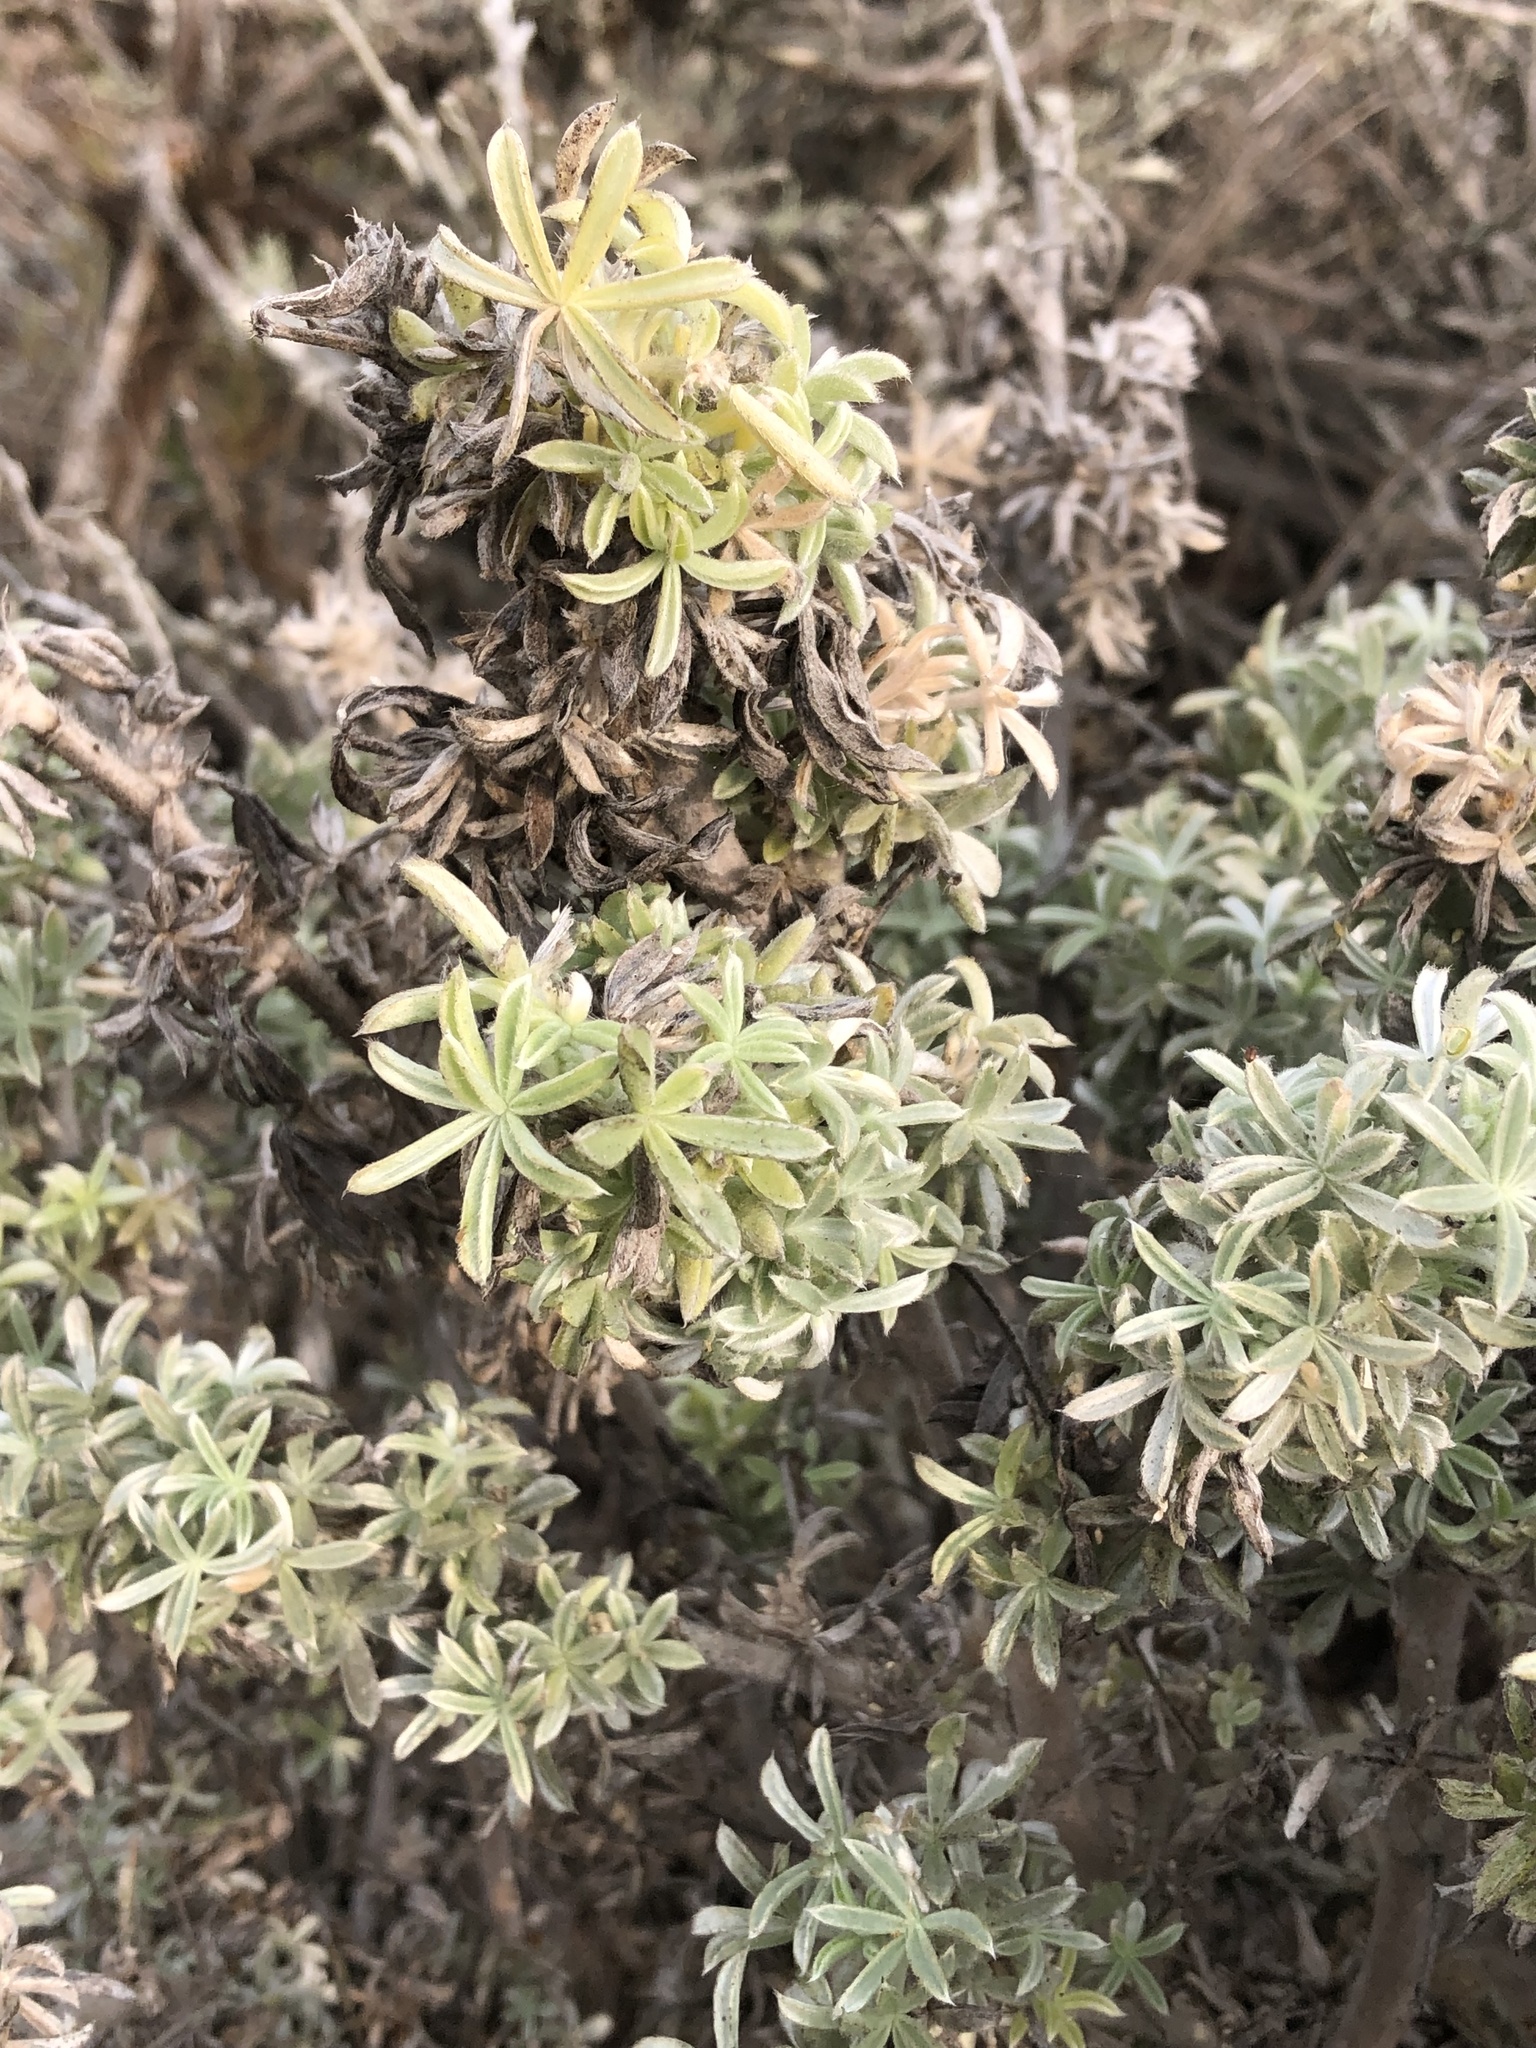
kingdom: Plantae
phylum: Tracheophyta
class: Magnoliopsida
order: Fabales
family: Fabaceae
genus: Lupinus
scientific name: Lupinus chamissonis
